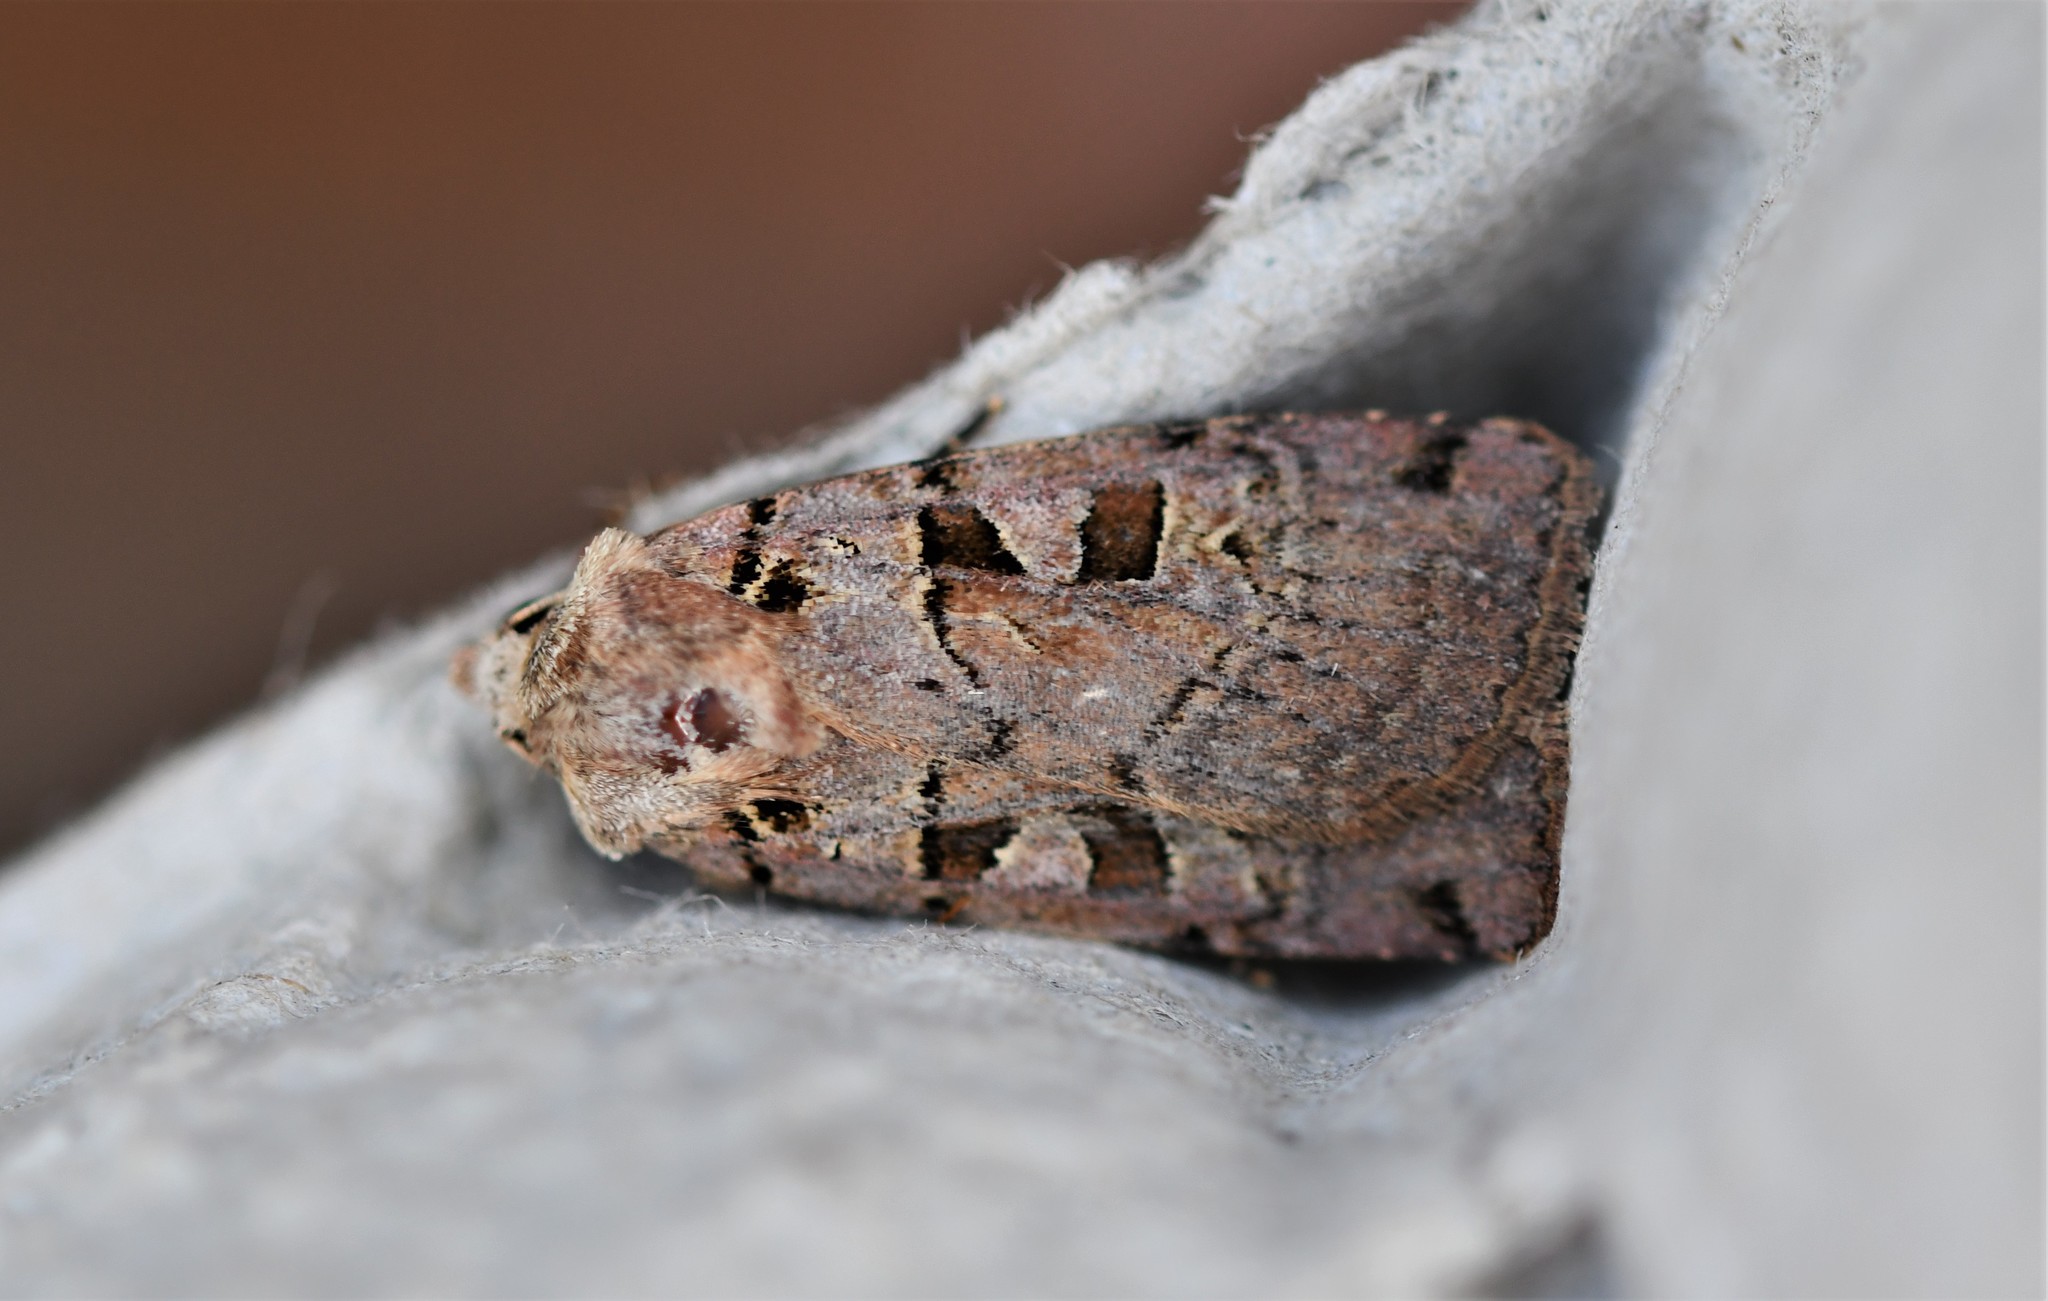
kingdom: Animalia
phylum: Arthropoda
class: Insecta
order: Lepidoptera
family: Noctuidae
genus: Xestia
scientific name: Xestia triangulum
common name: Double square-spot
